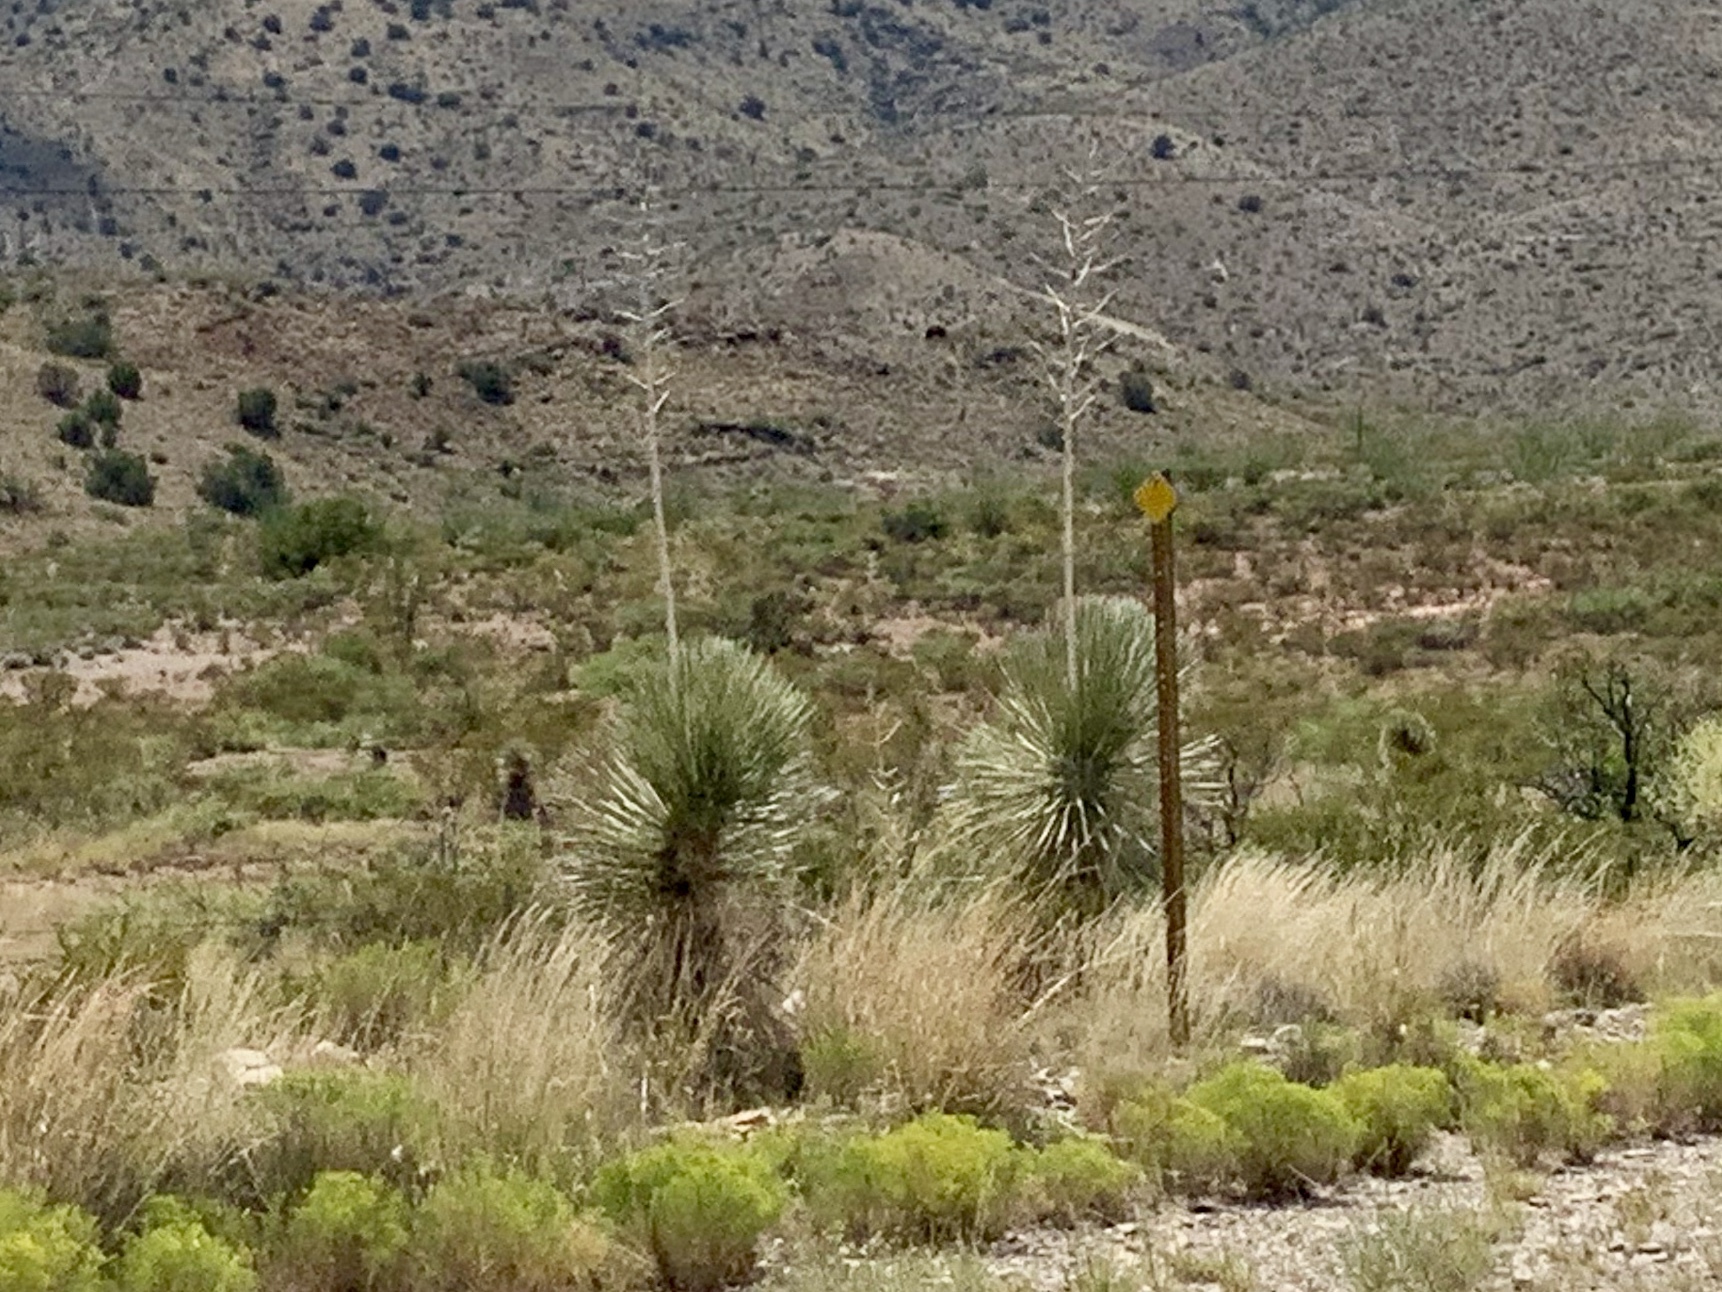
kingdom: Plantae
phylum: Tracheophyta
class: Liliopsida
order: Asparagales
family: Asparagaceae
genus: Yucca
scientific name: Yucca elata
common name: Palmella
